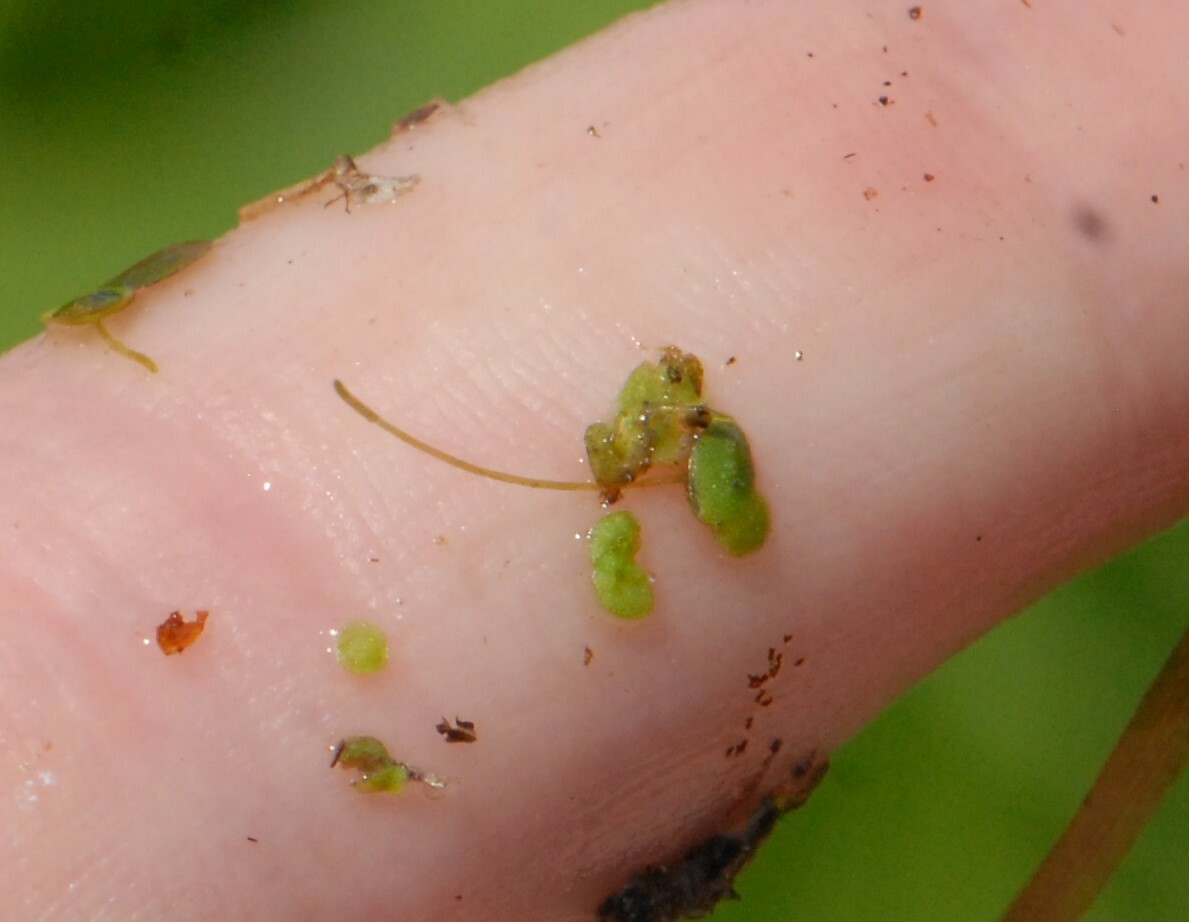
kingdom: Plantae
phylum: Tracheophyta
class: Liliopsida
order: Alismatales
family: Araceae
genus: Lemna
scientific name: Lemna minor
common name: Common duckweed
